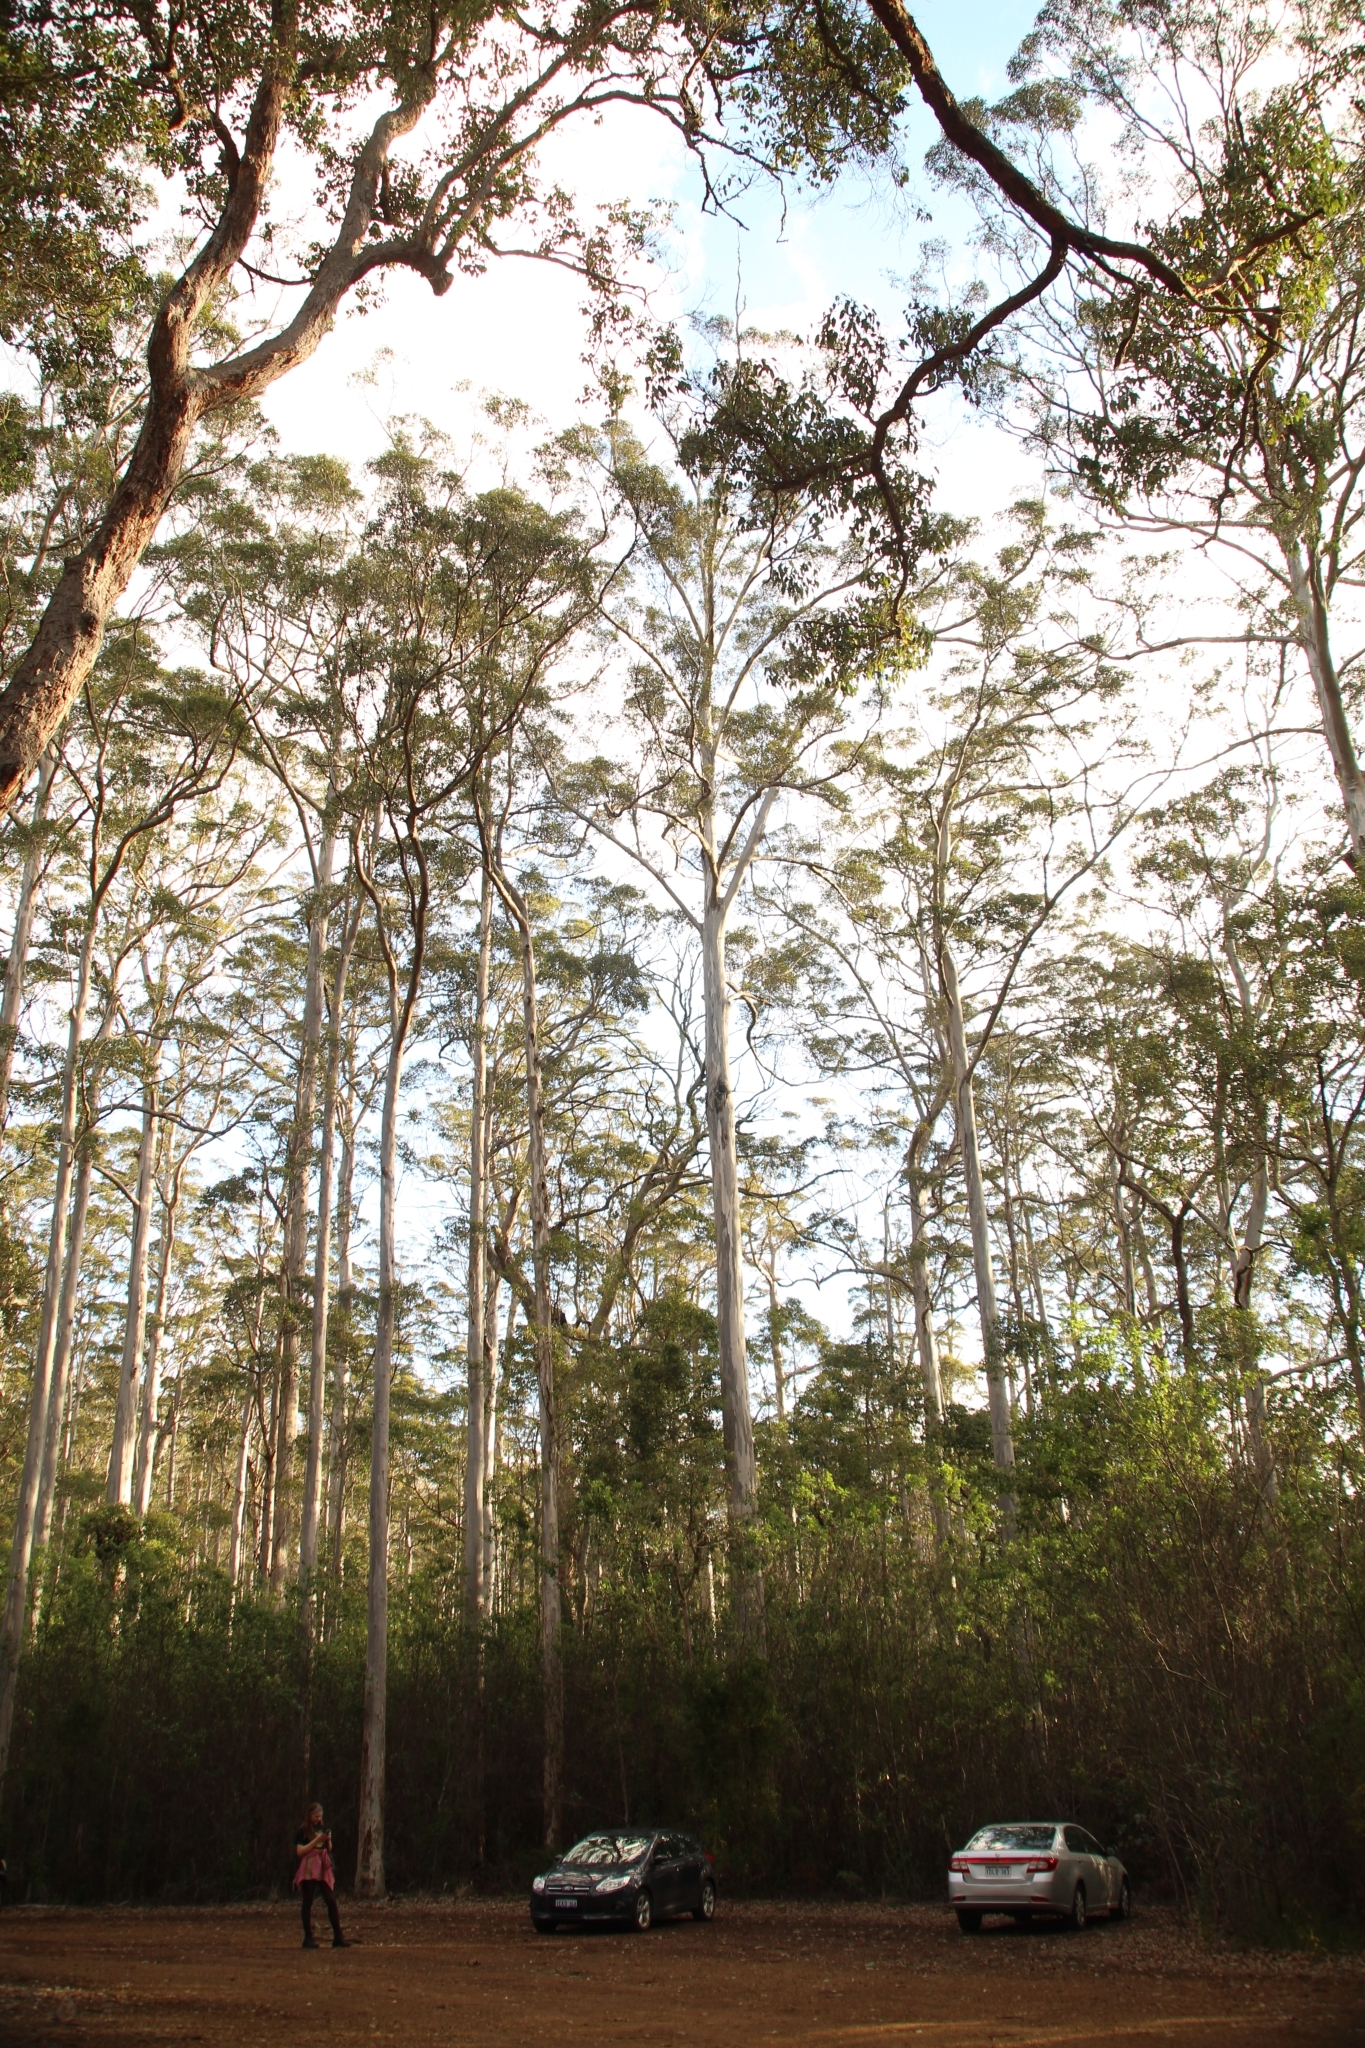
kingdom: Plantae
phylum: Tracheophyta
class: Magnoliopsida
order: Myrtales
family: Myrtaceae
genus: Eucalyptus
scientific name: Eucalyptus diversicolor
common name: Karri
